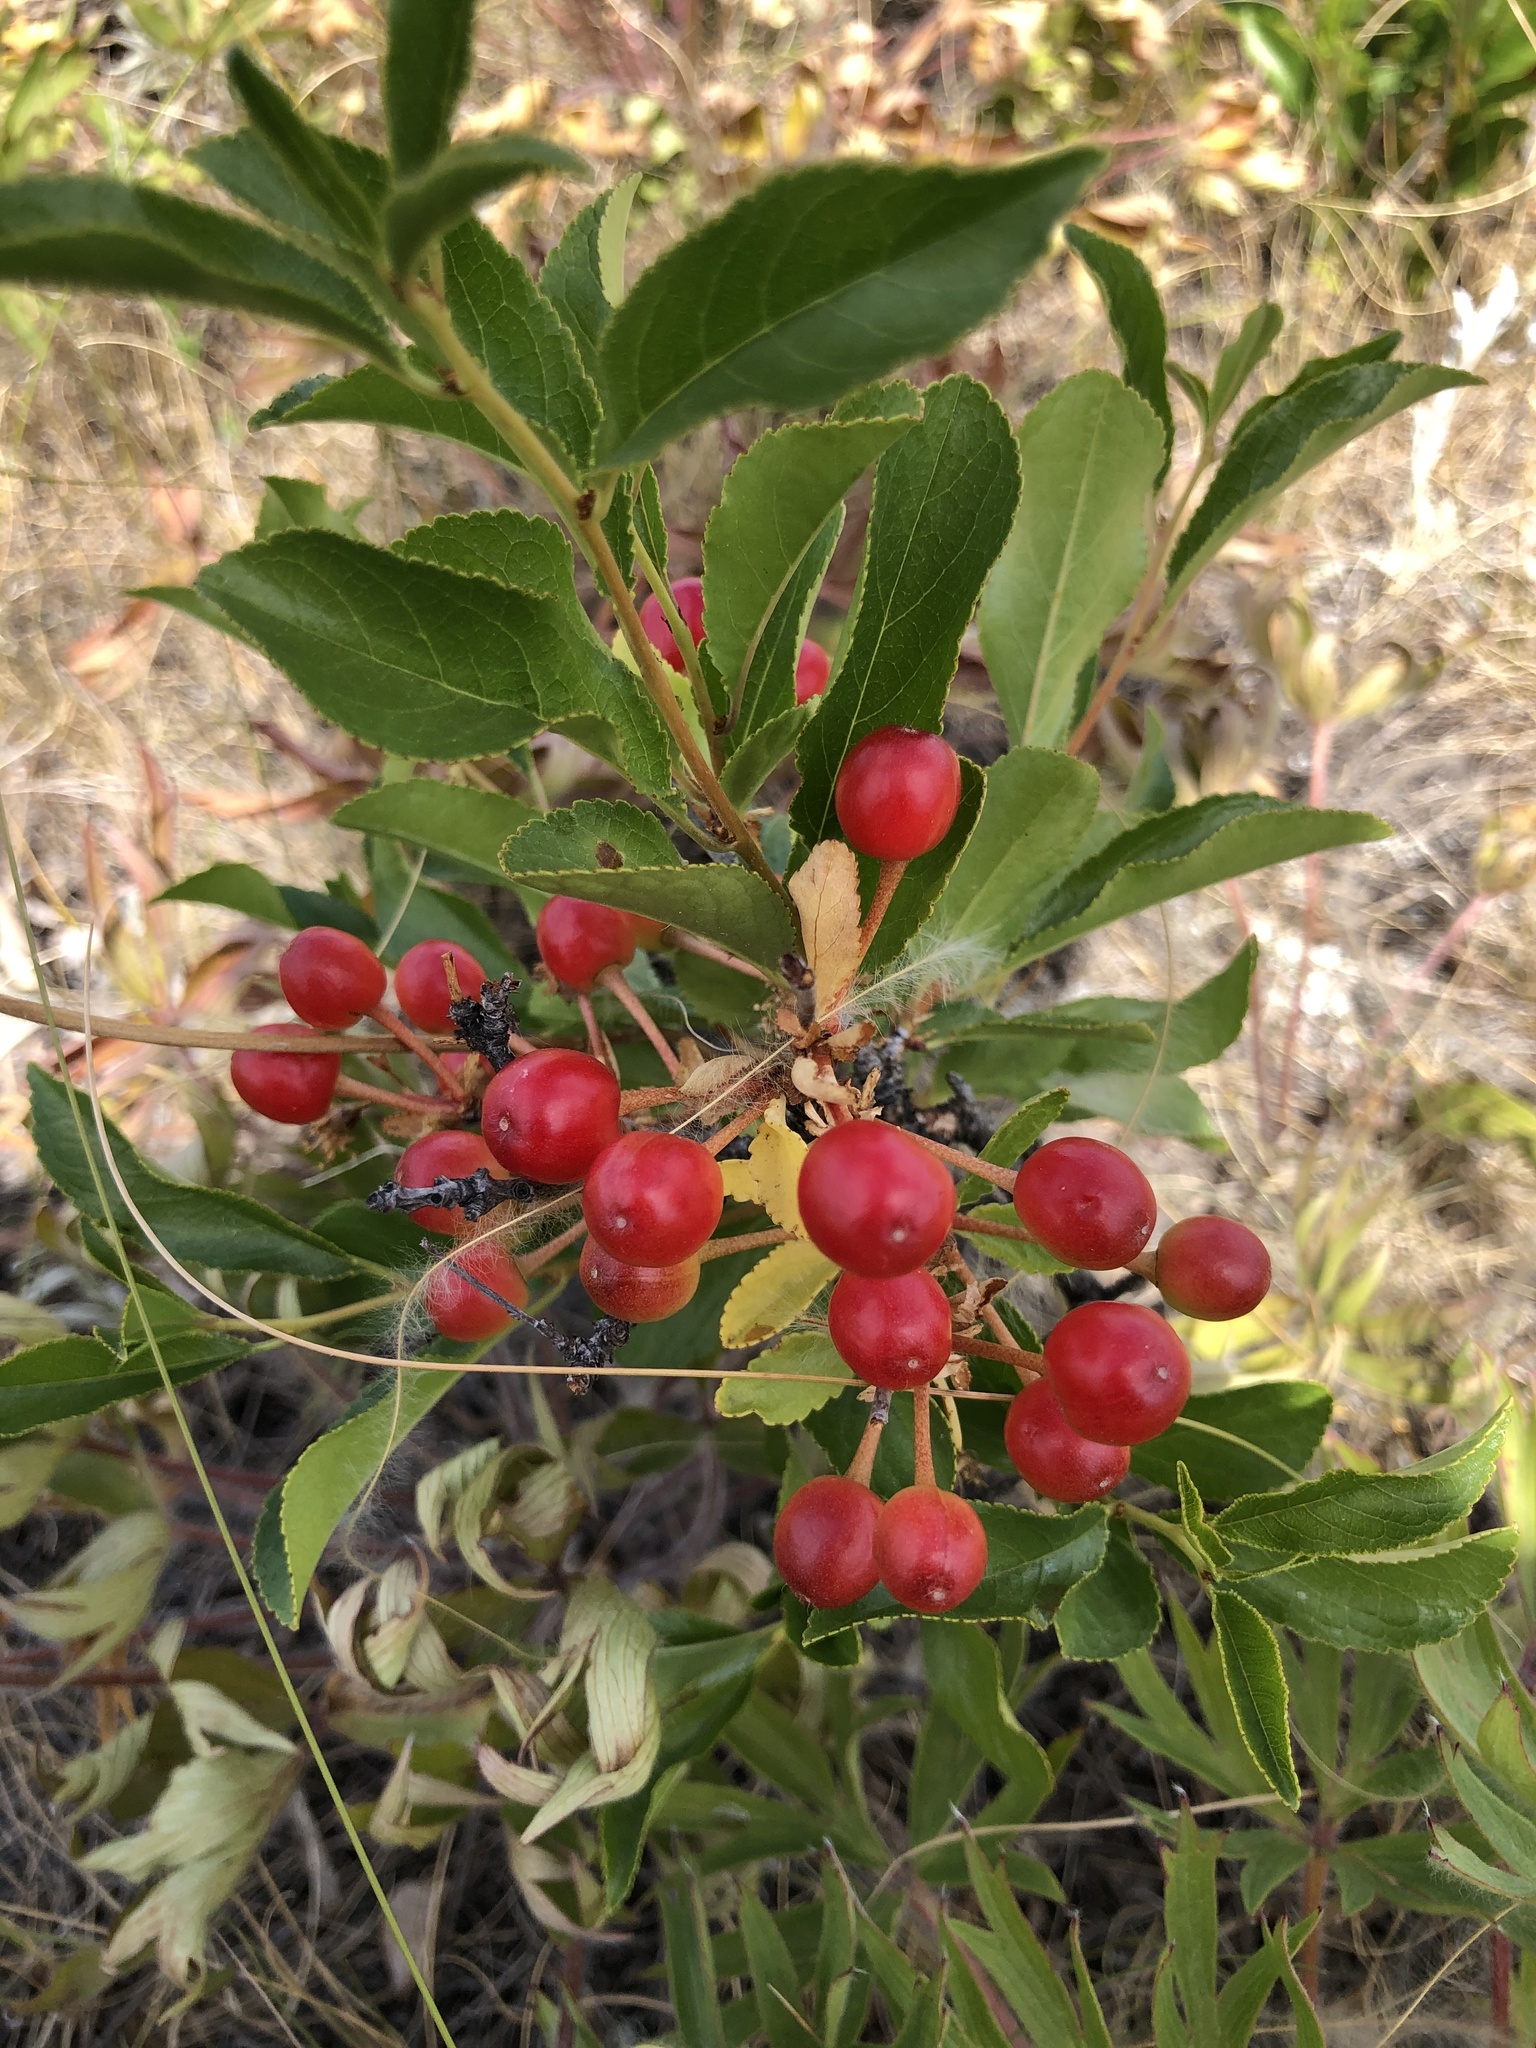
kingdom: Plantae
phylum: Tracheophyta
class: Magnoliopsida
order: Rosales
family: Rosaceae
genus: Prunus
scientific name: Prunus fruticosa
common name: European dwarf cherry
